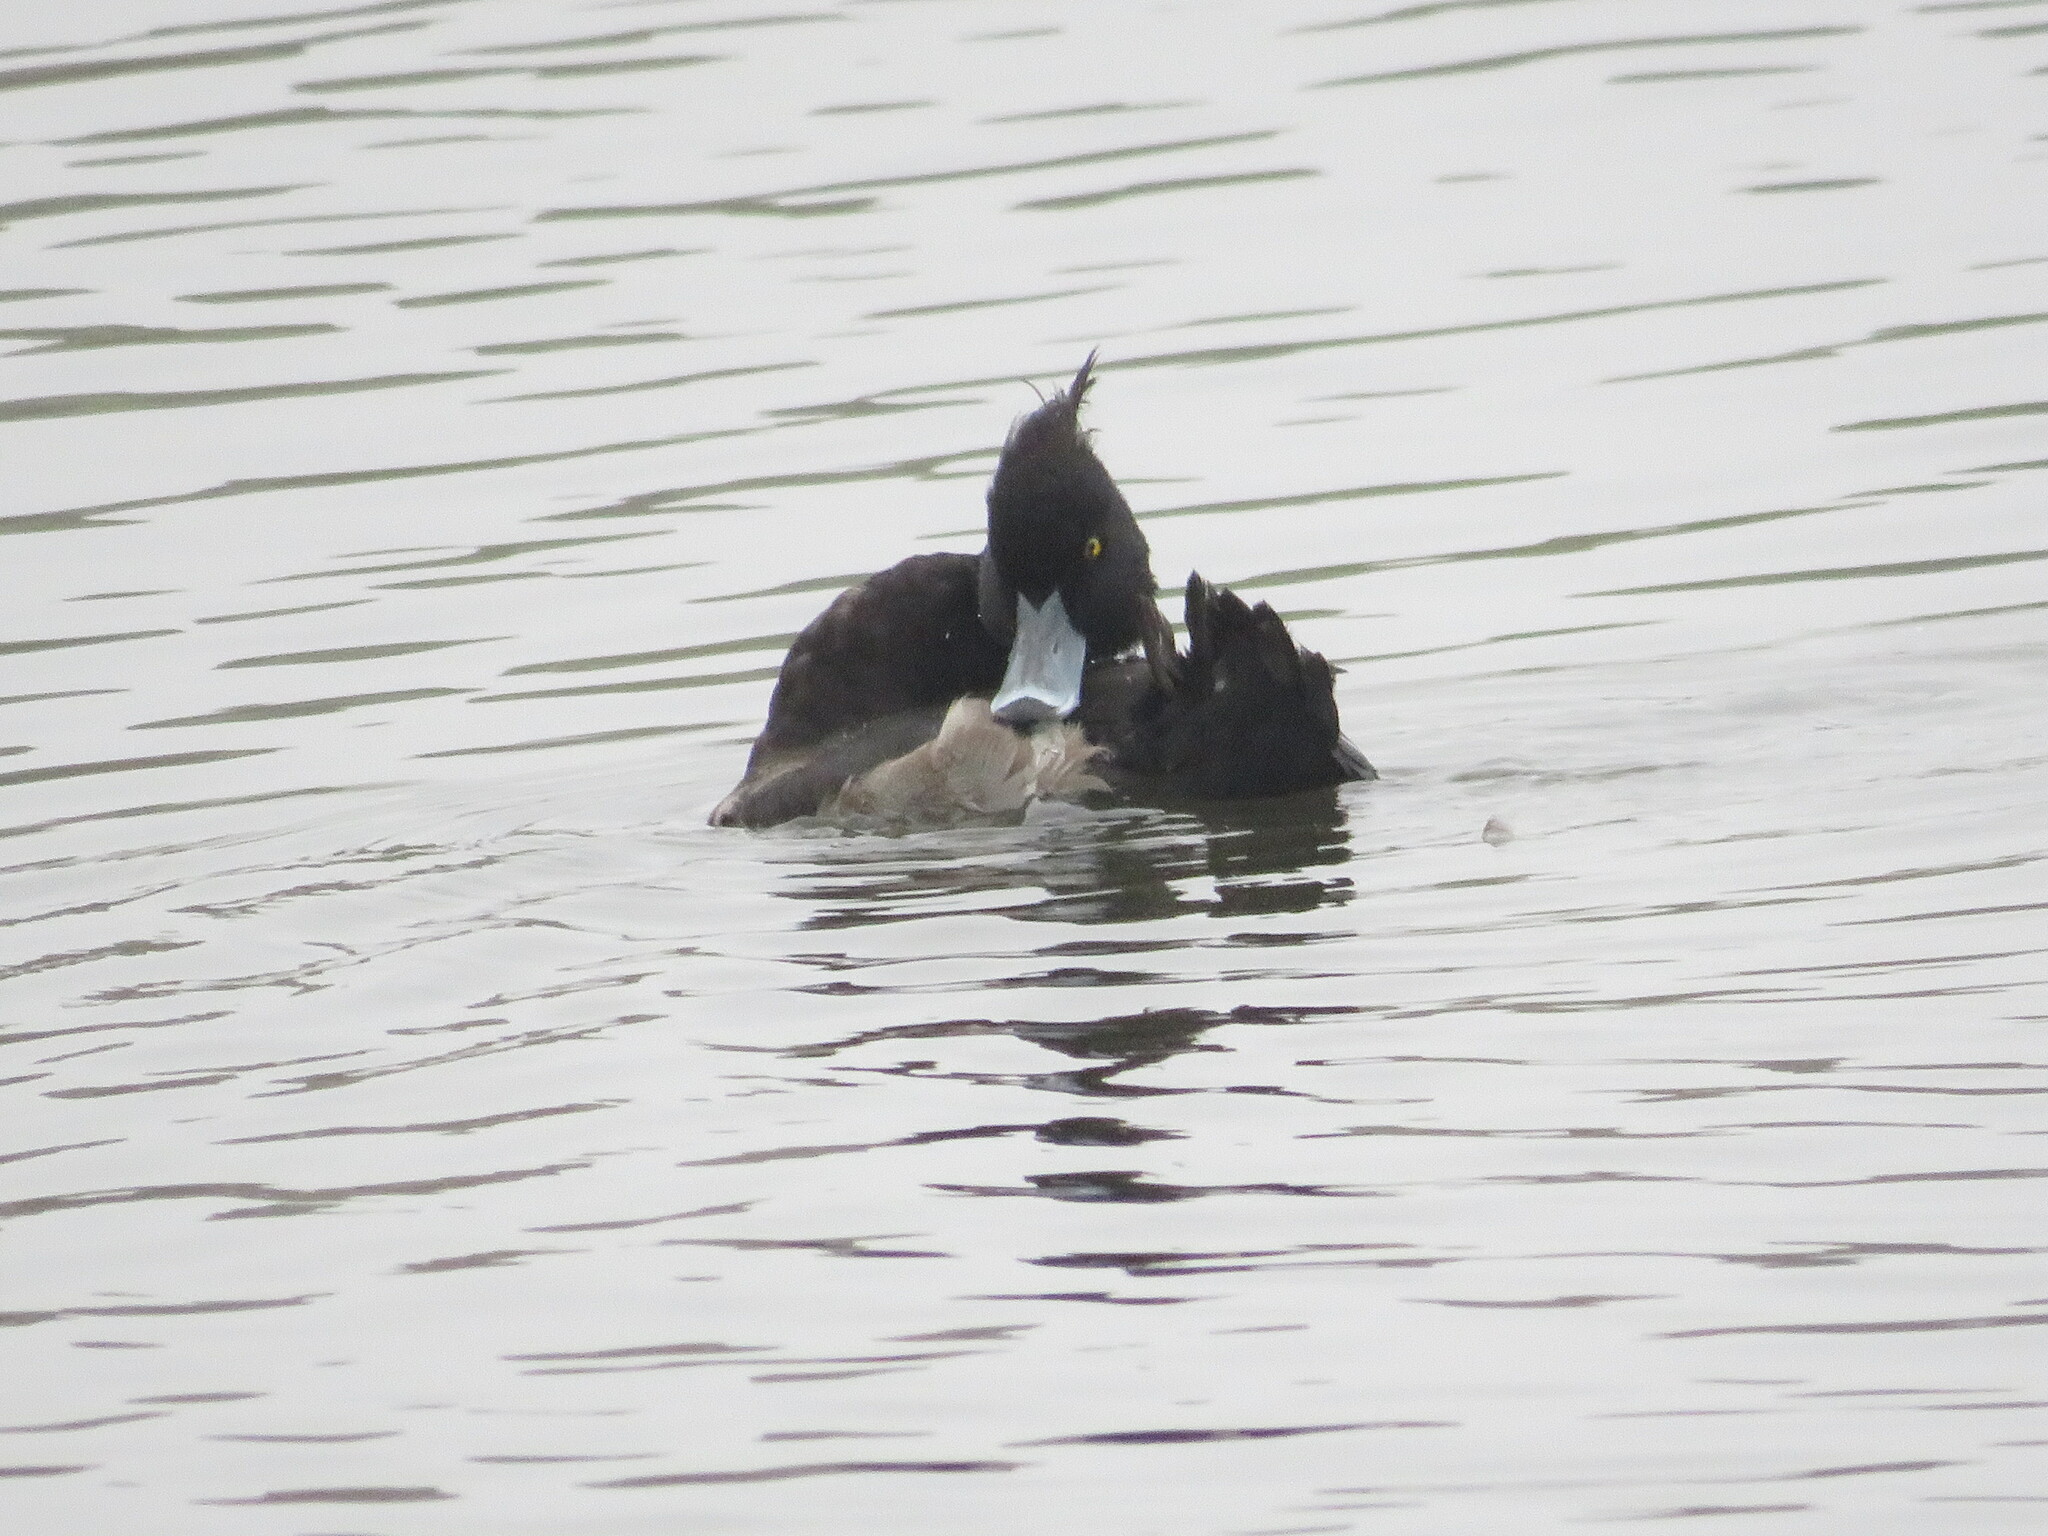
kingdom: Animalia
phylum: Chordata
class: Aves
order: Anseriformes
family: Anatidae
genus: Aythya
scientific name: Aythya fuligula
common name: Tufted duck
